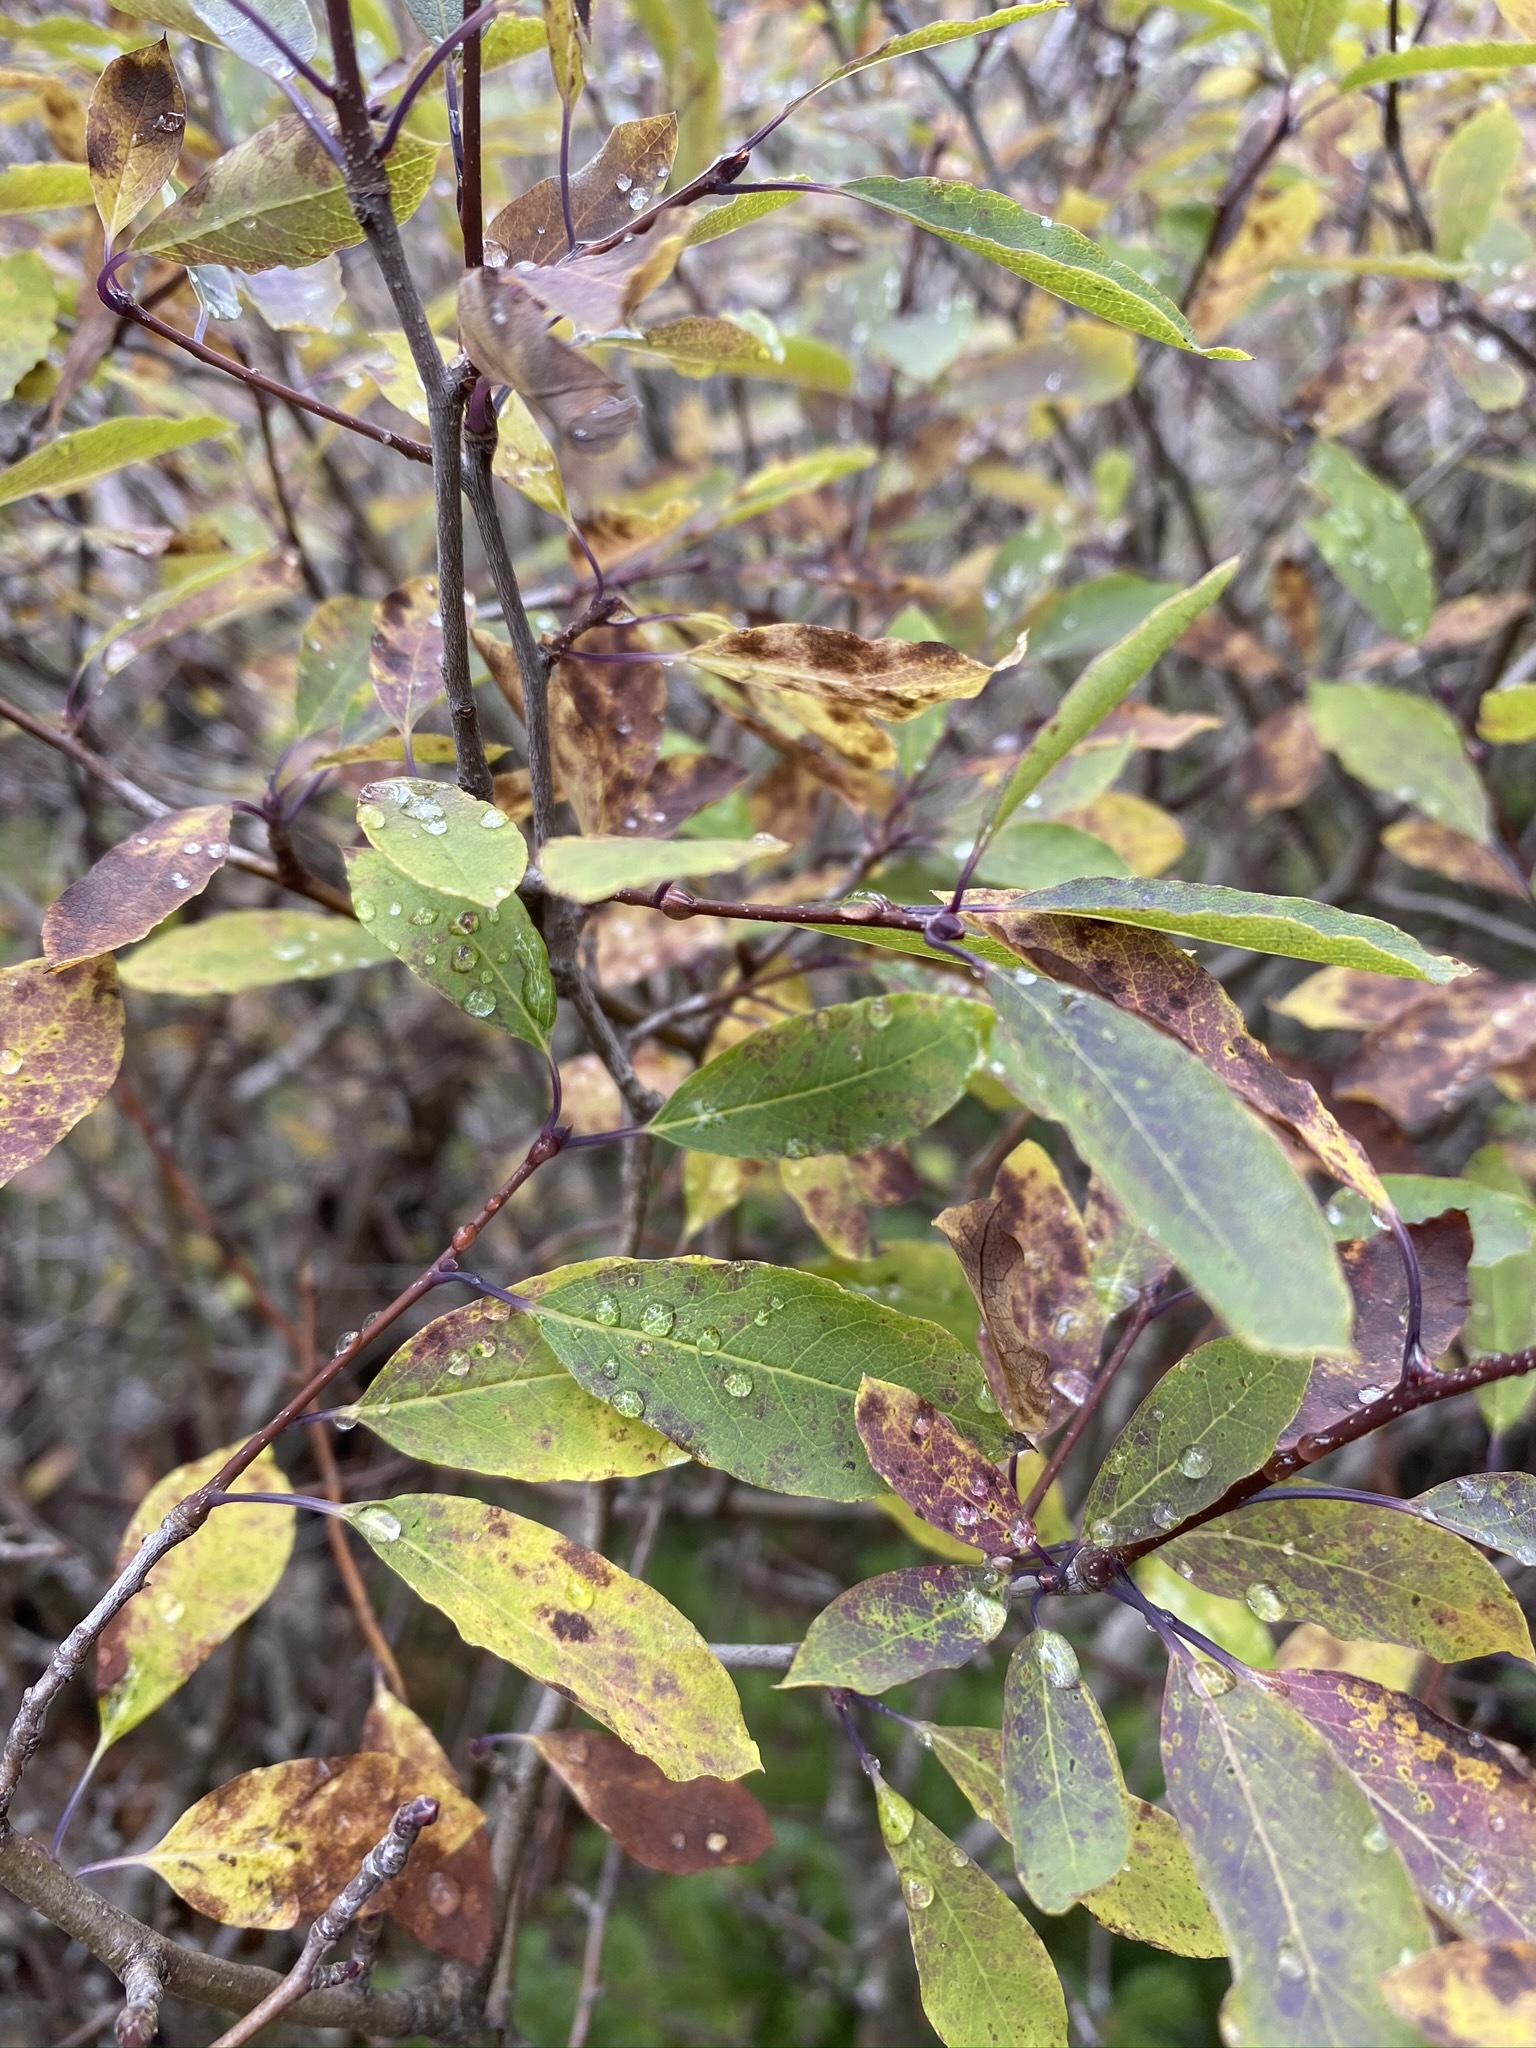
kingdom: Plantae
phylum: Tracheophyta
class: Magnoliopsida
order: Aquifoliales
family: Aquifoliaceae
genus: Ilex
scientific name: Ilex mucronata
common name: Catberry
